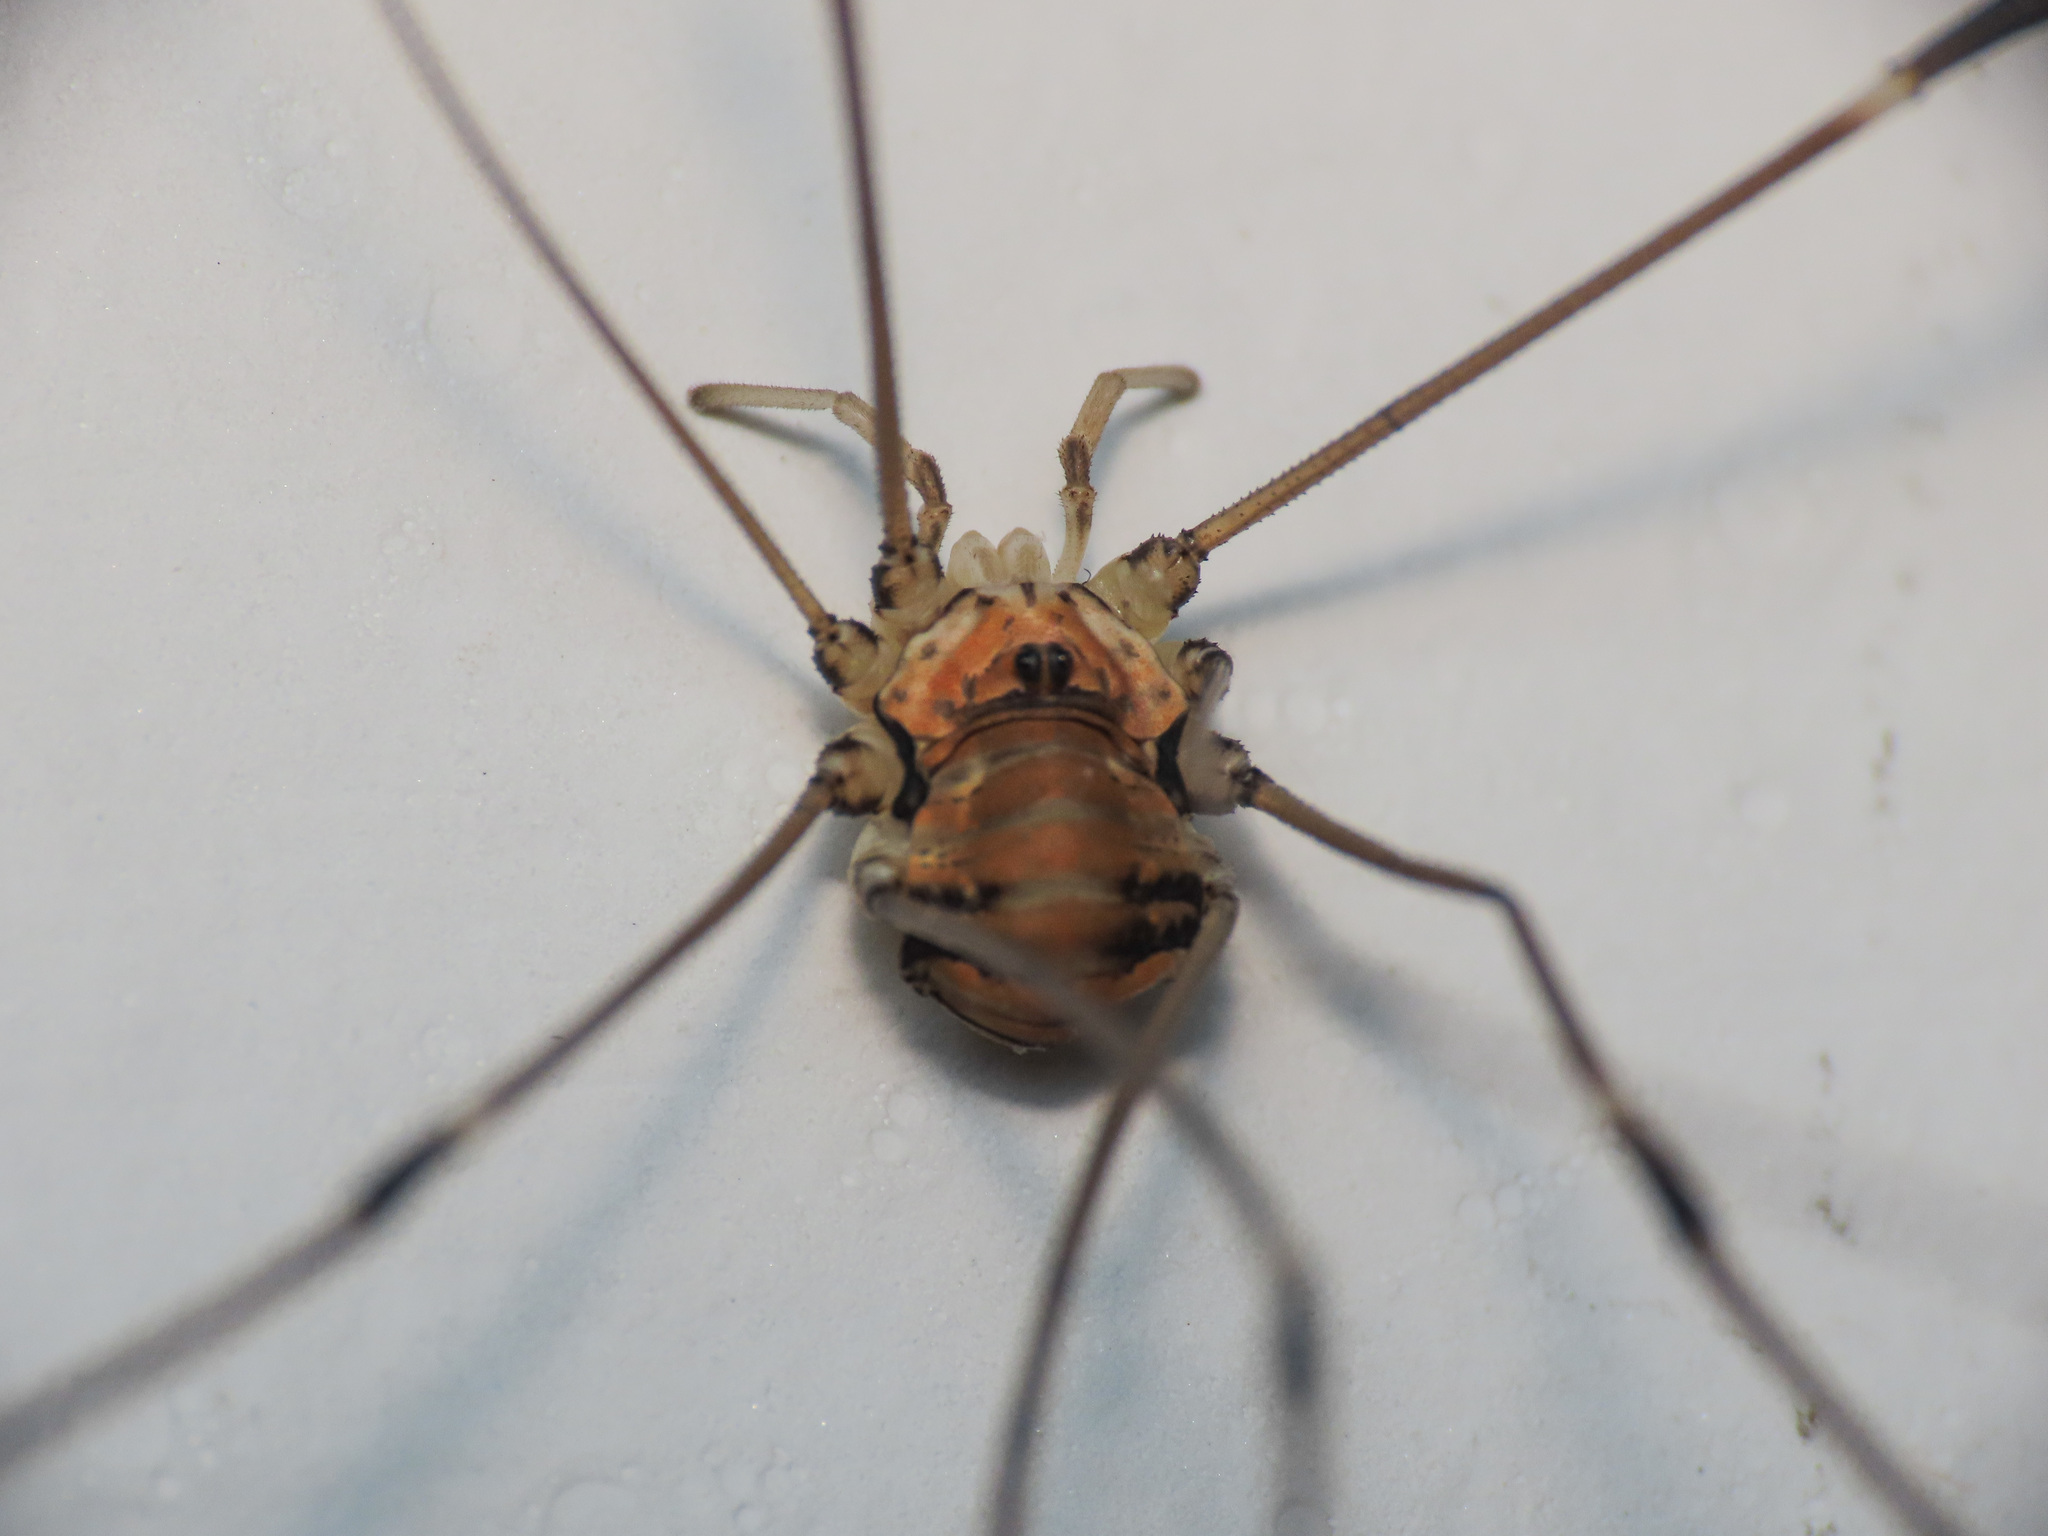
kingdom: Animalia
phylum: Arthropoda
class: Arachnida
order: Opiliones
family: Sclerosomatidae
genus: Leiobunum
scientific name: Leiobunum limbatum
